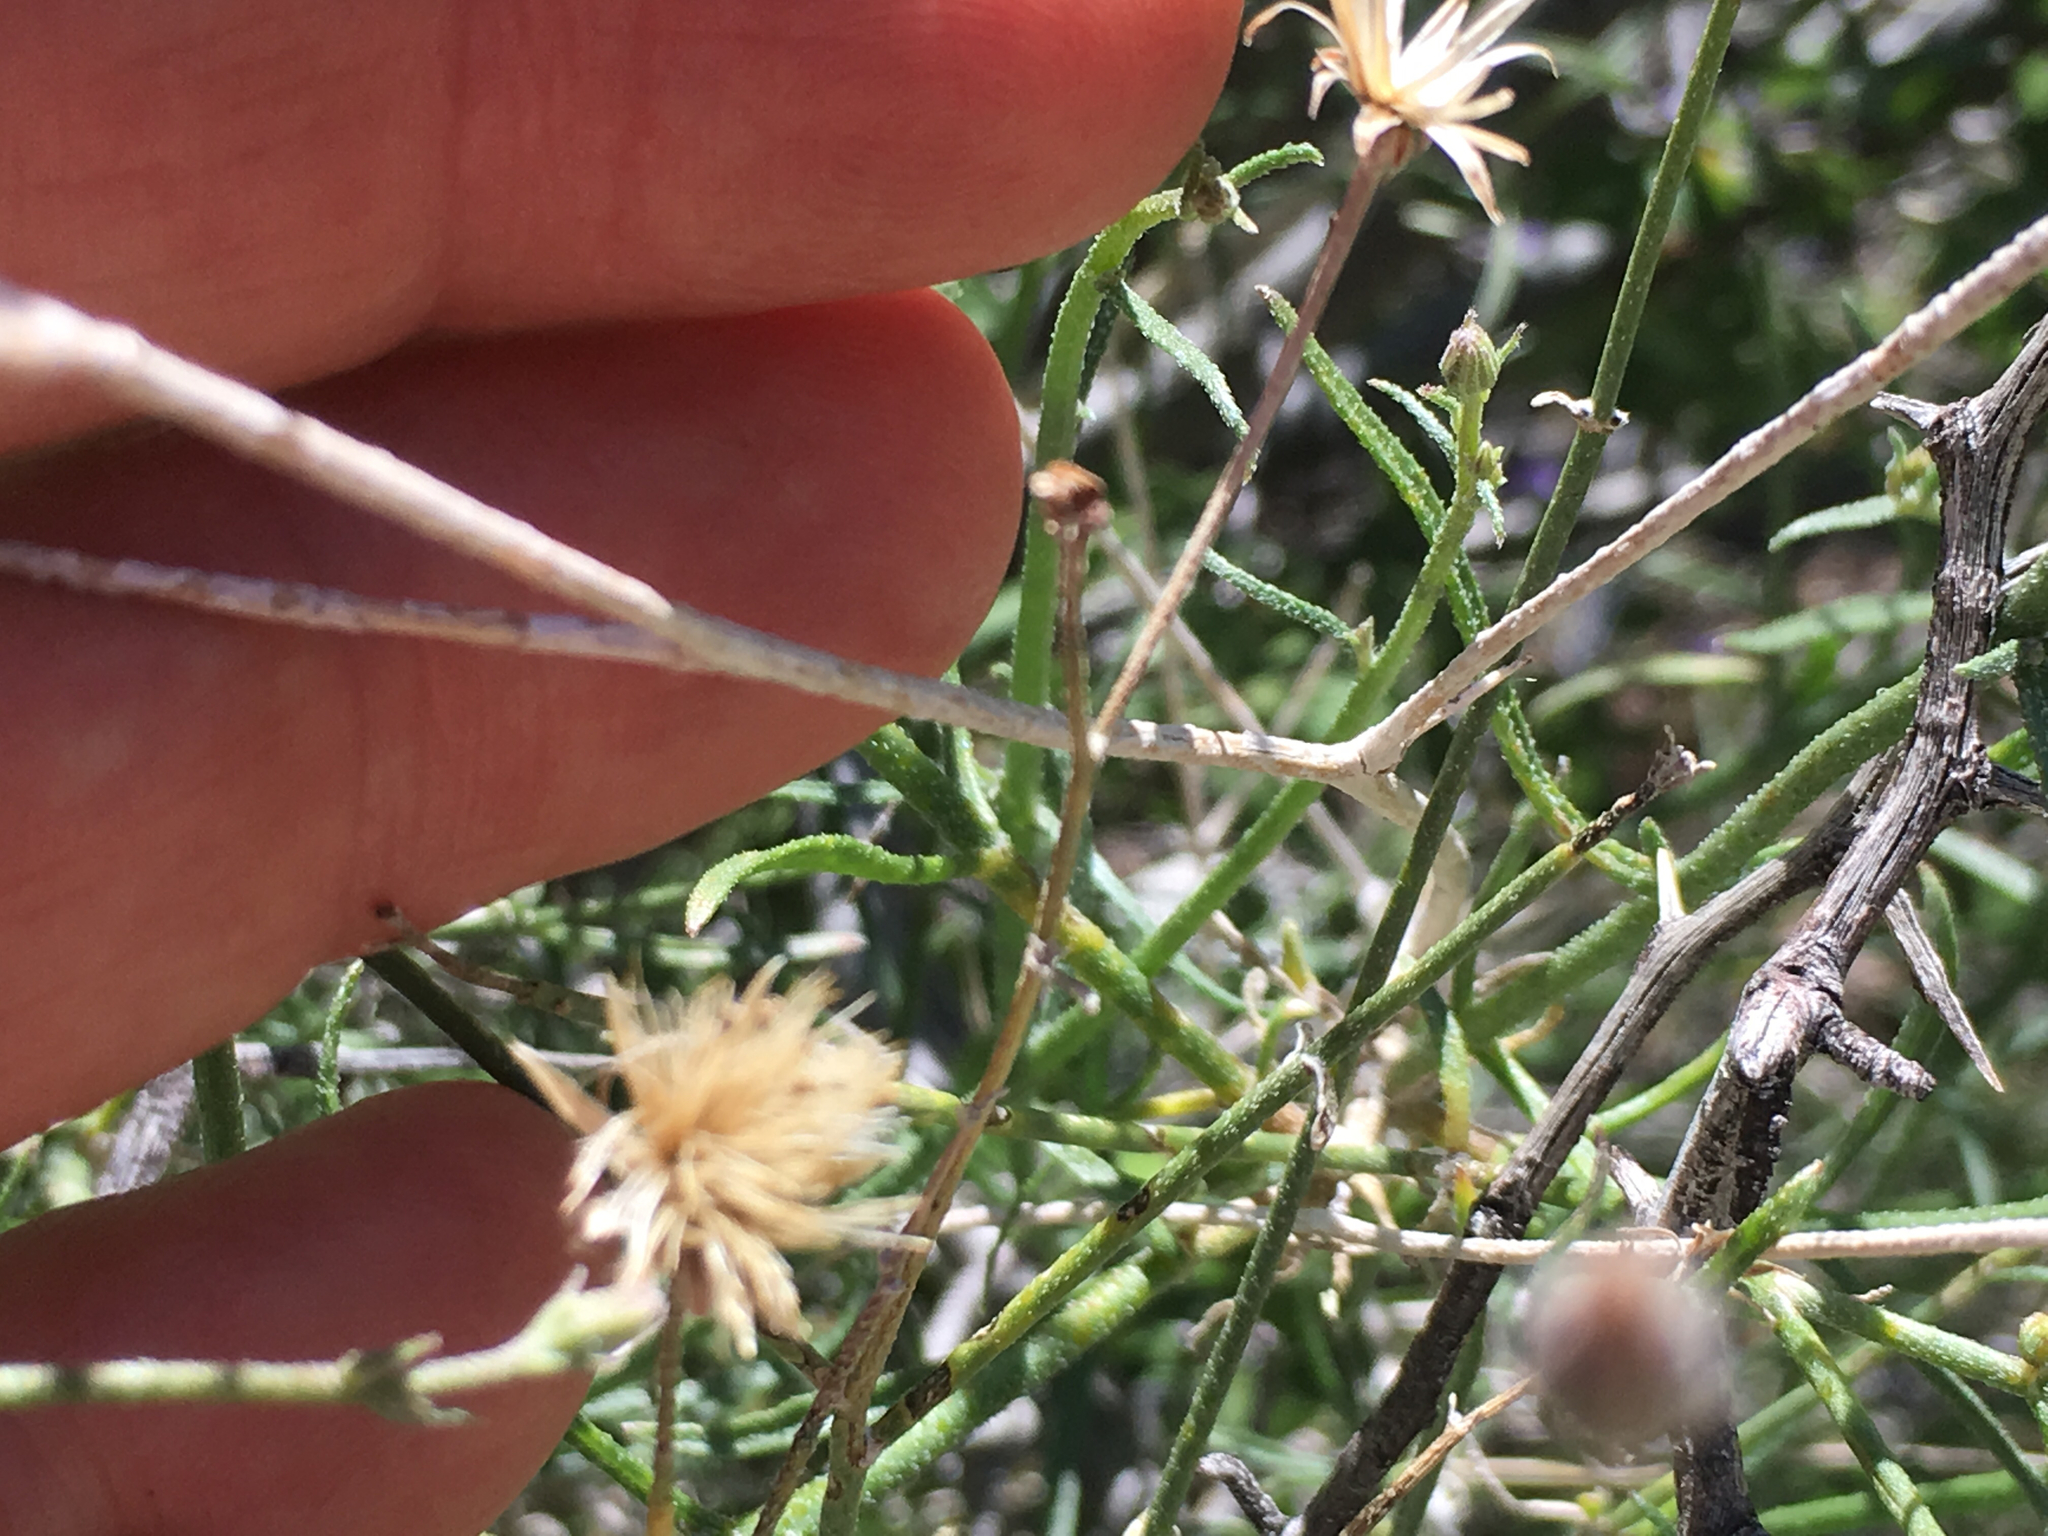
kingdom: Plantae
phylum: Tracheophyta
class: Magnoliopsida
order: Asterales
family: Asteraceae
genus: Bebbia
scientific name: Bebbia juncea
